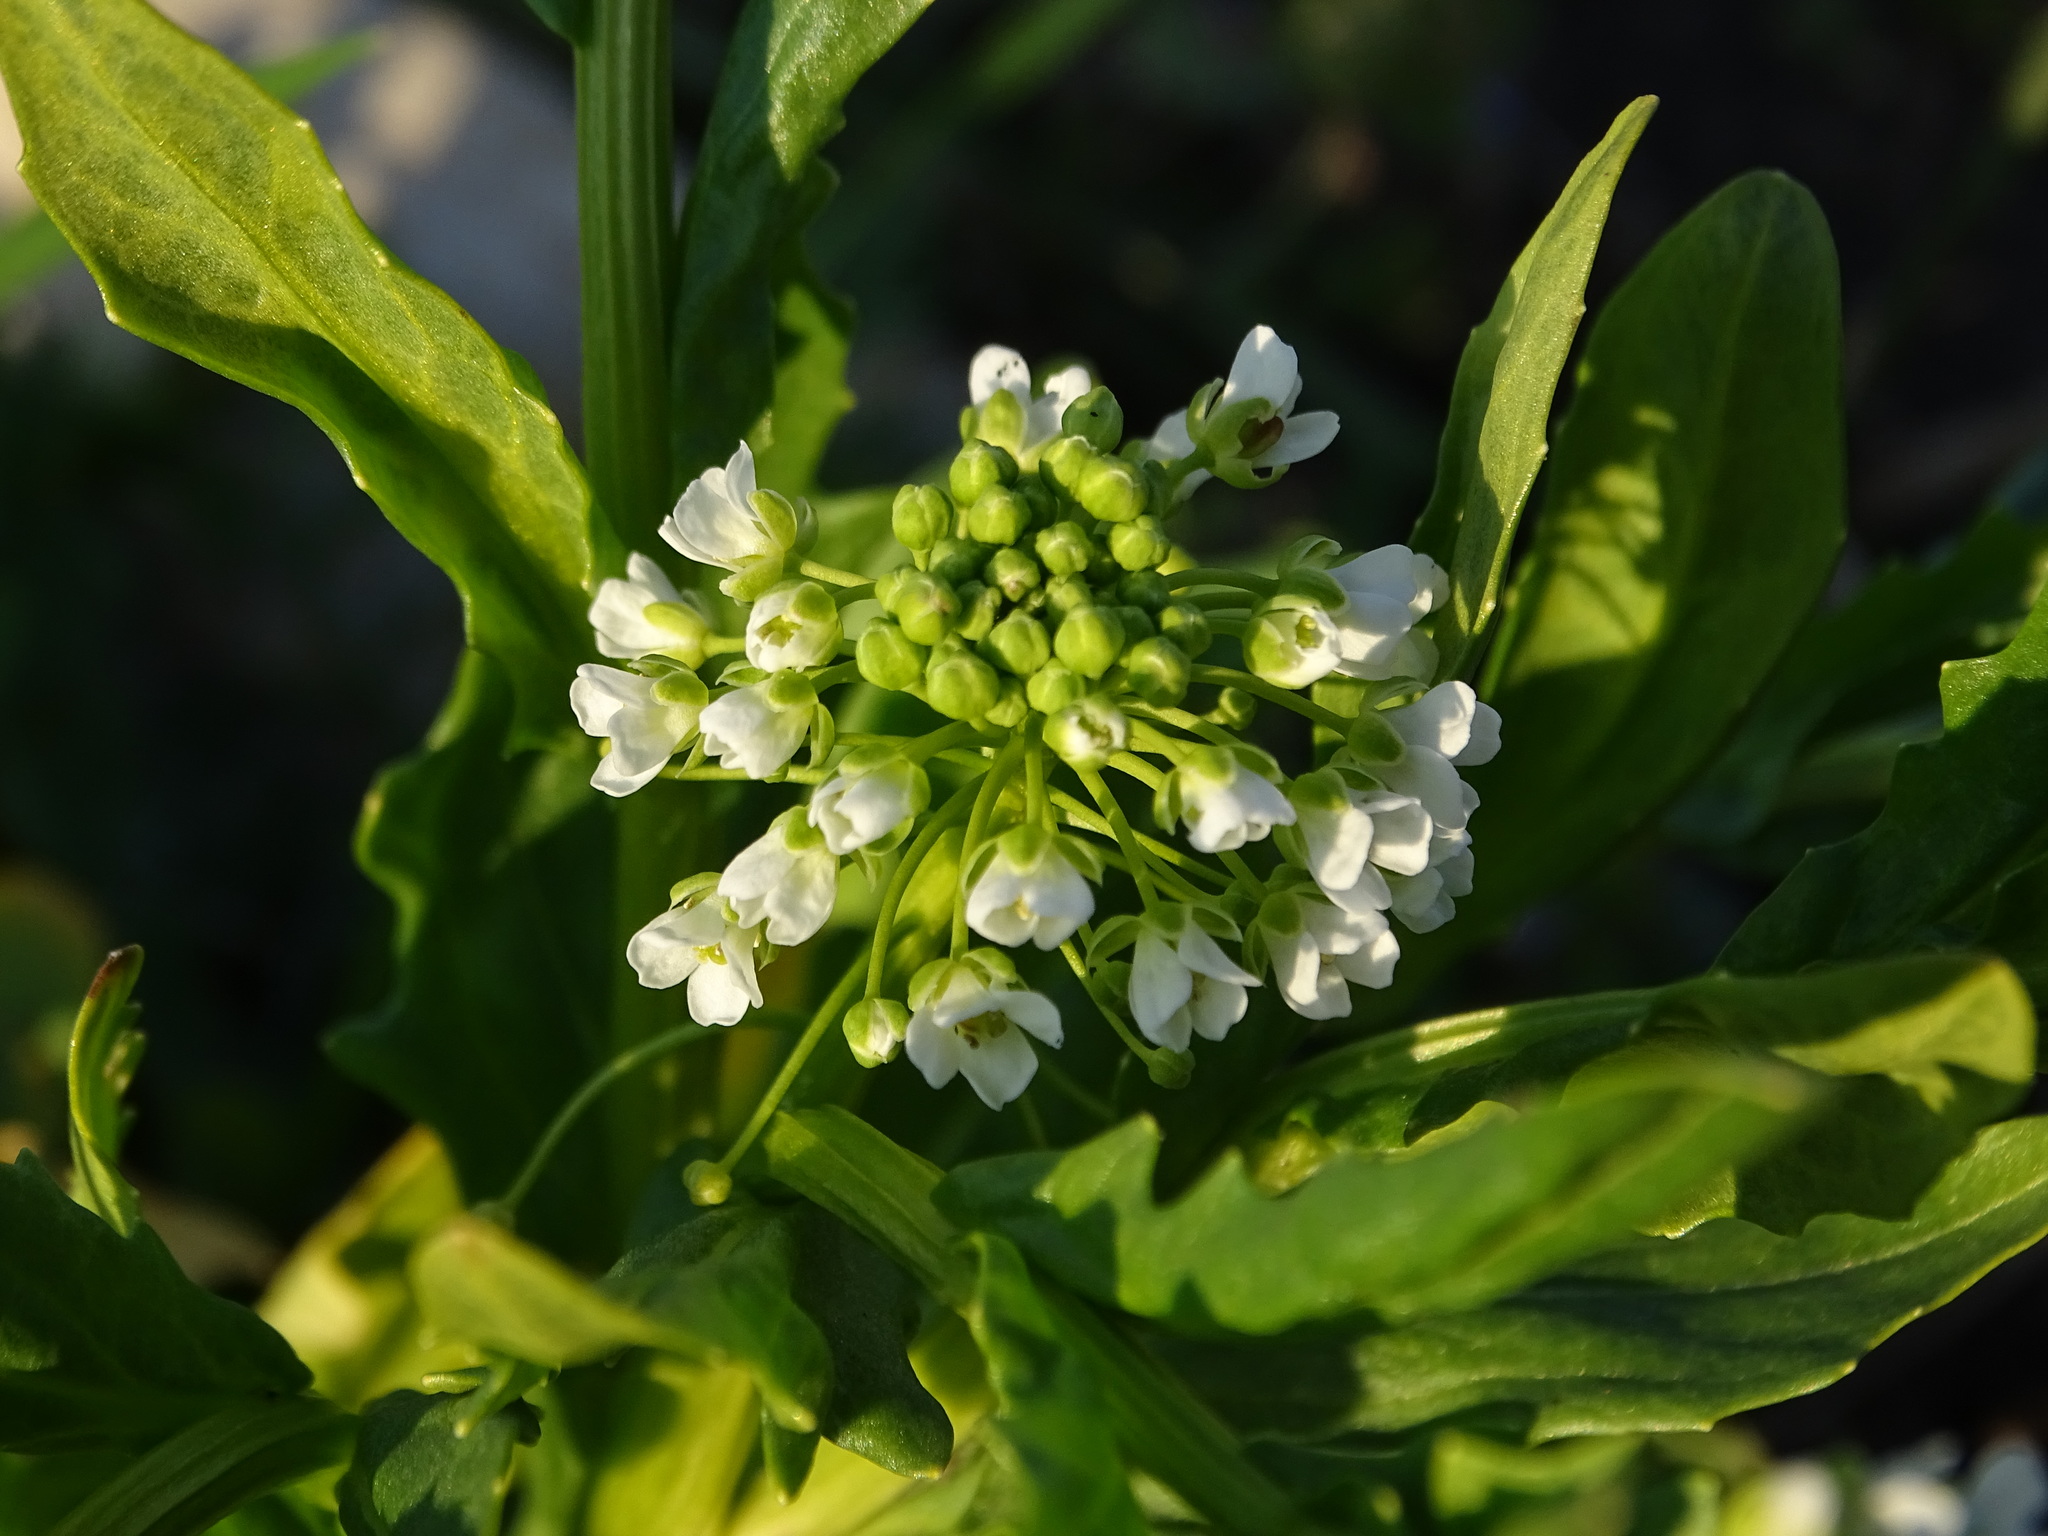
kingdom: Plantae
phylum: Tracheophyta
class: Magnoliopsida
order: Brassicales
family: Brassicaceae
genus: Thlaspi
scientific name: Thlaspi arvense
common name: Field pennycress
